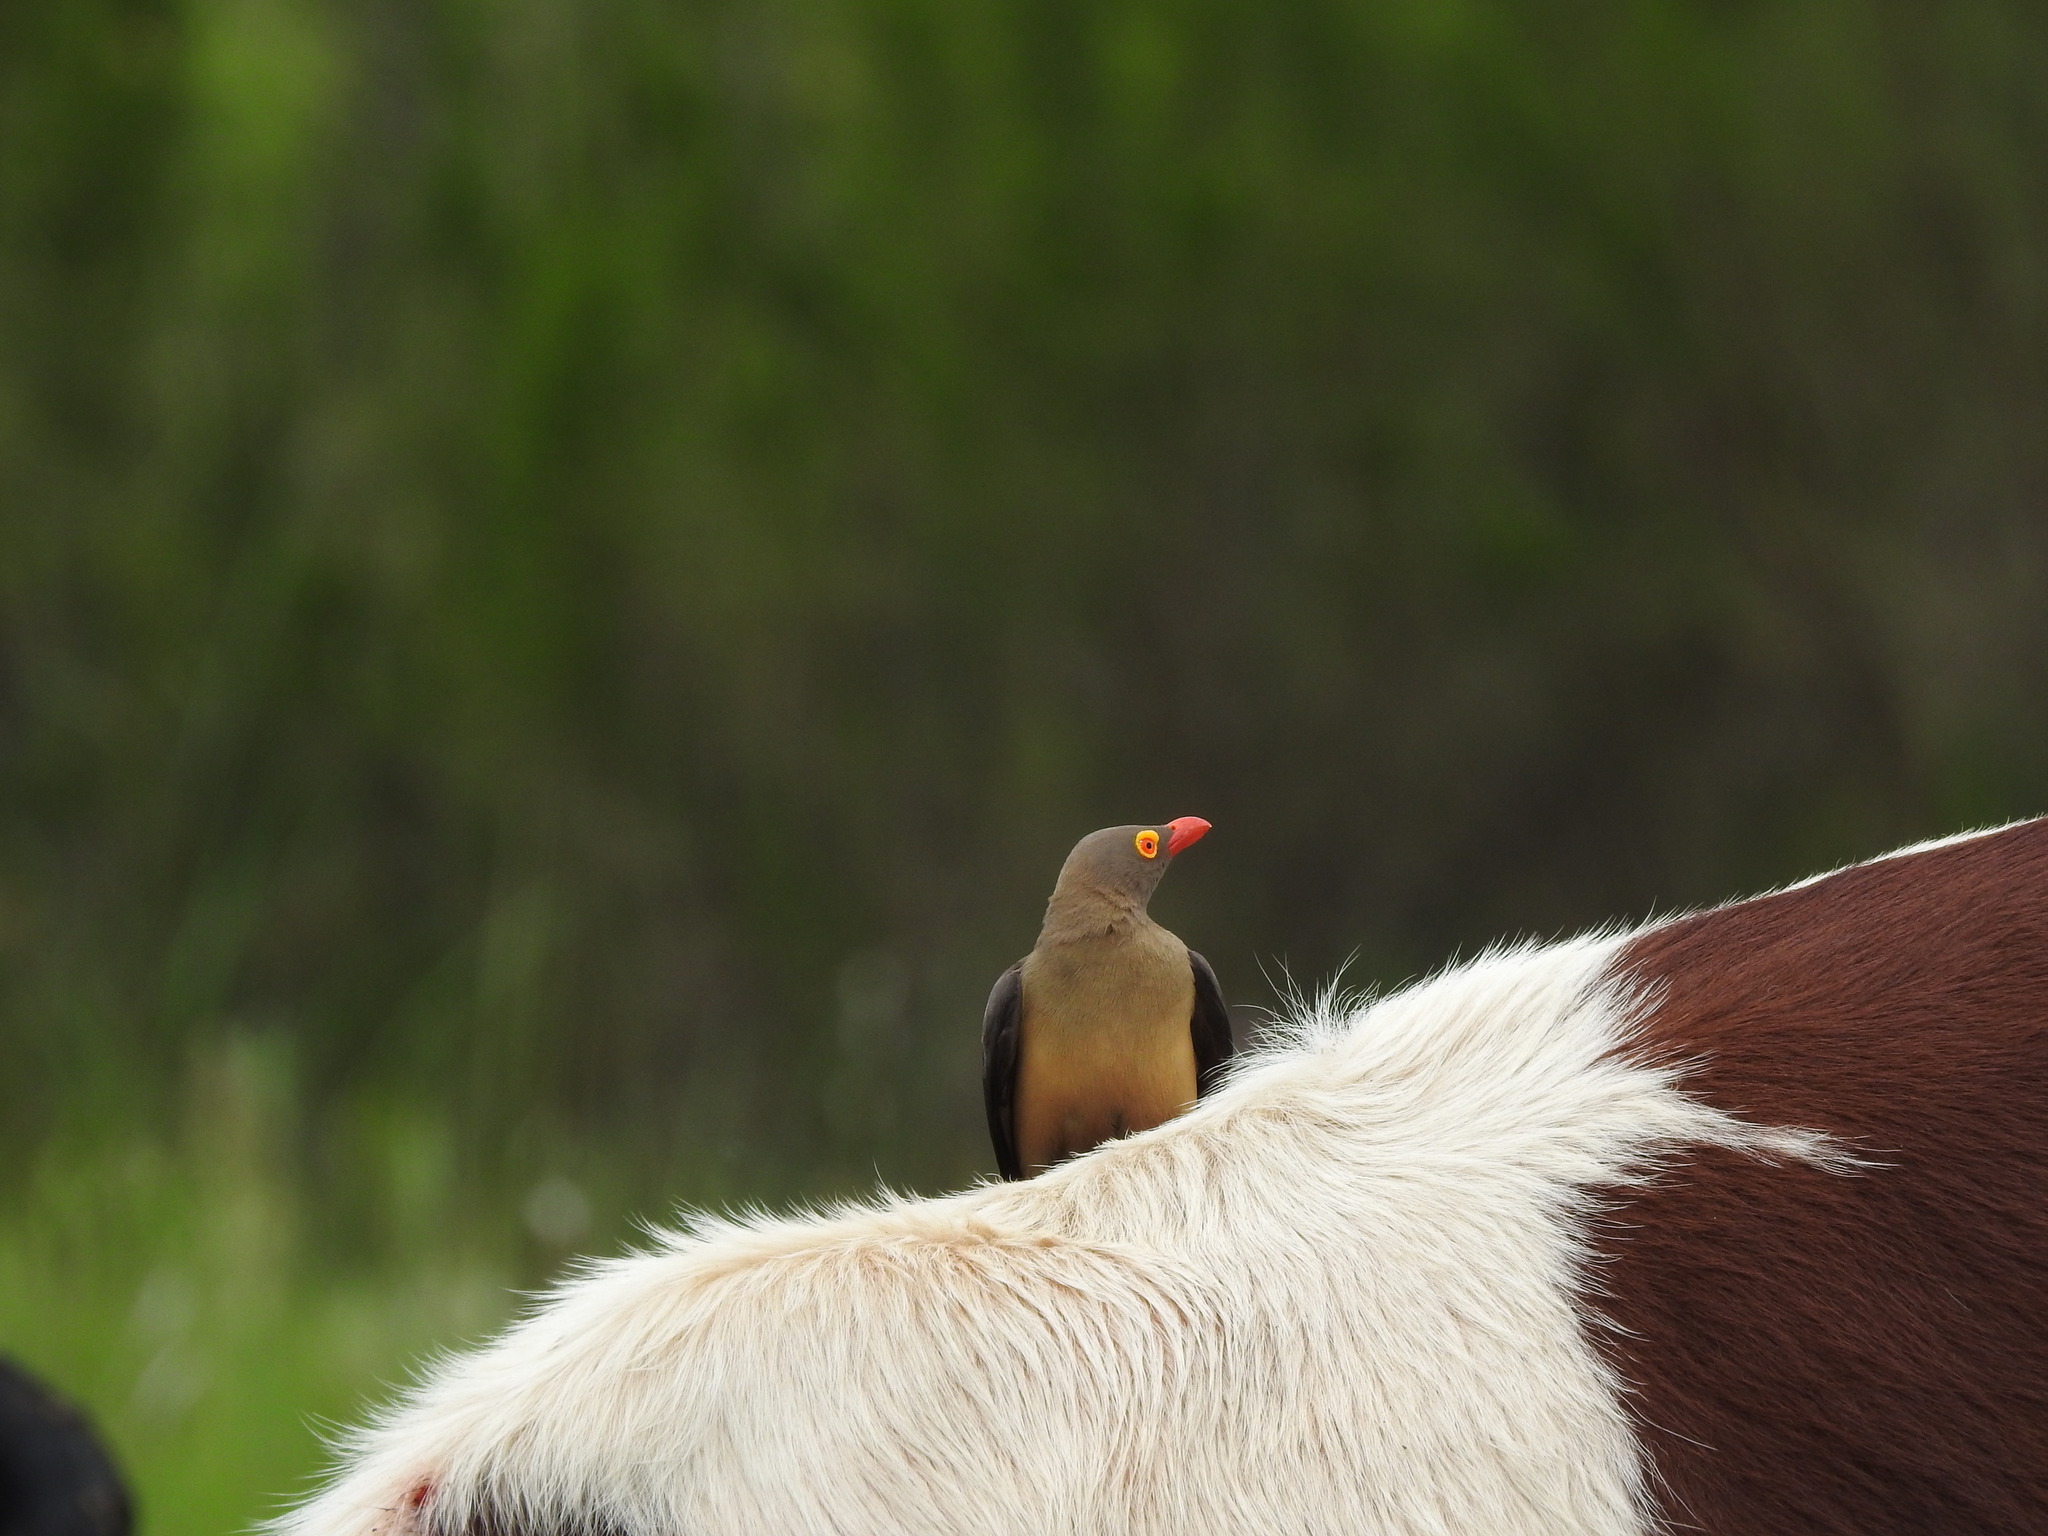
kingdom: Animalia
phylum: Chordata
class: Aves
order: Passeriformes
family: Buphagidae
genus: Buphagus
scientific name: Buphagus erythrorhynchus
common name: Red-billed oxpecker
